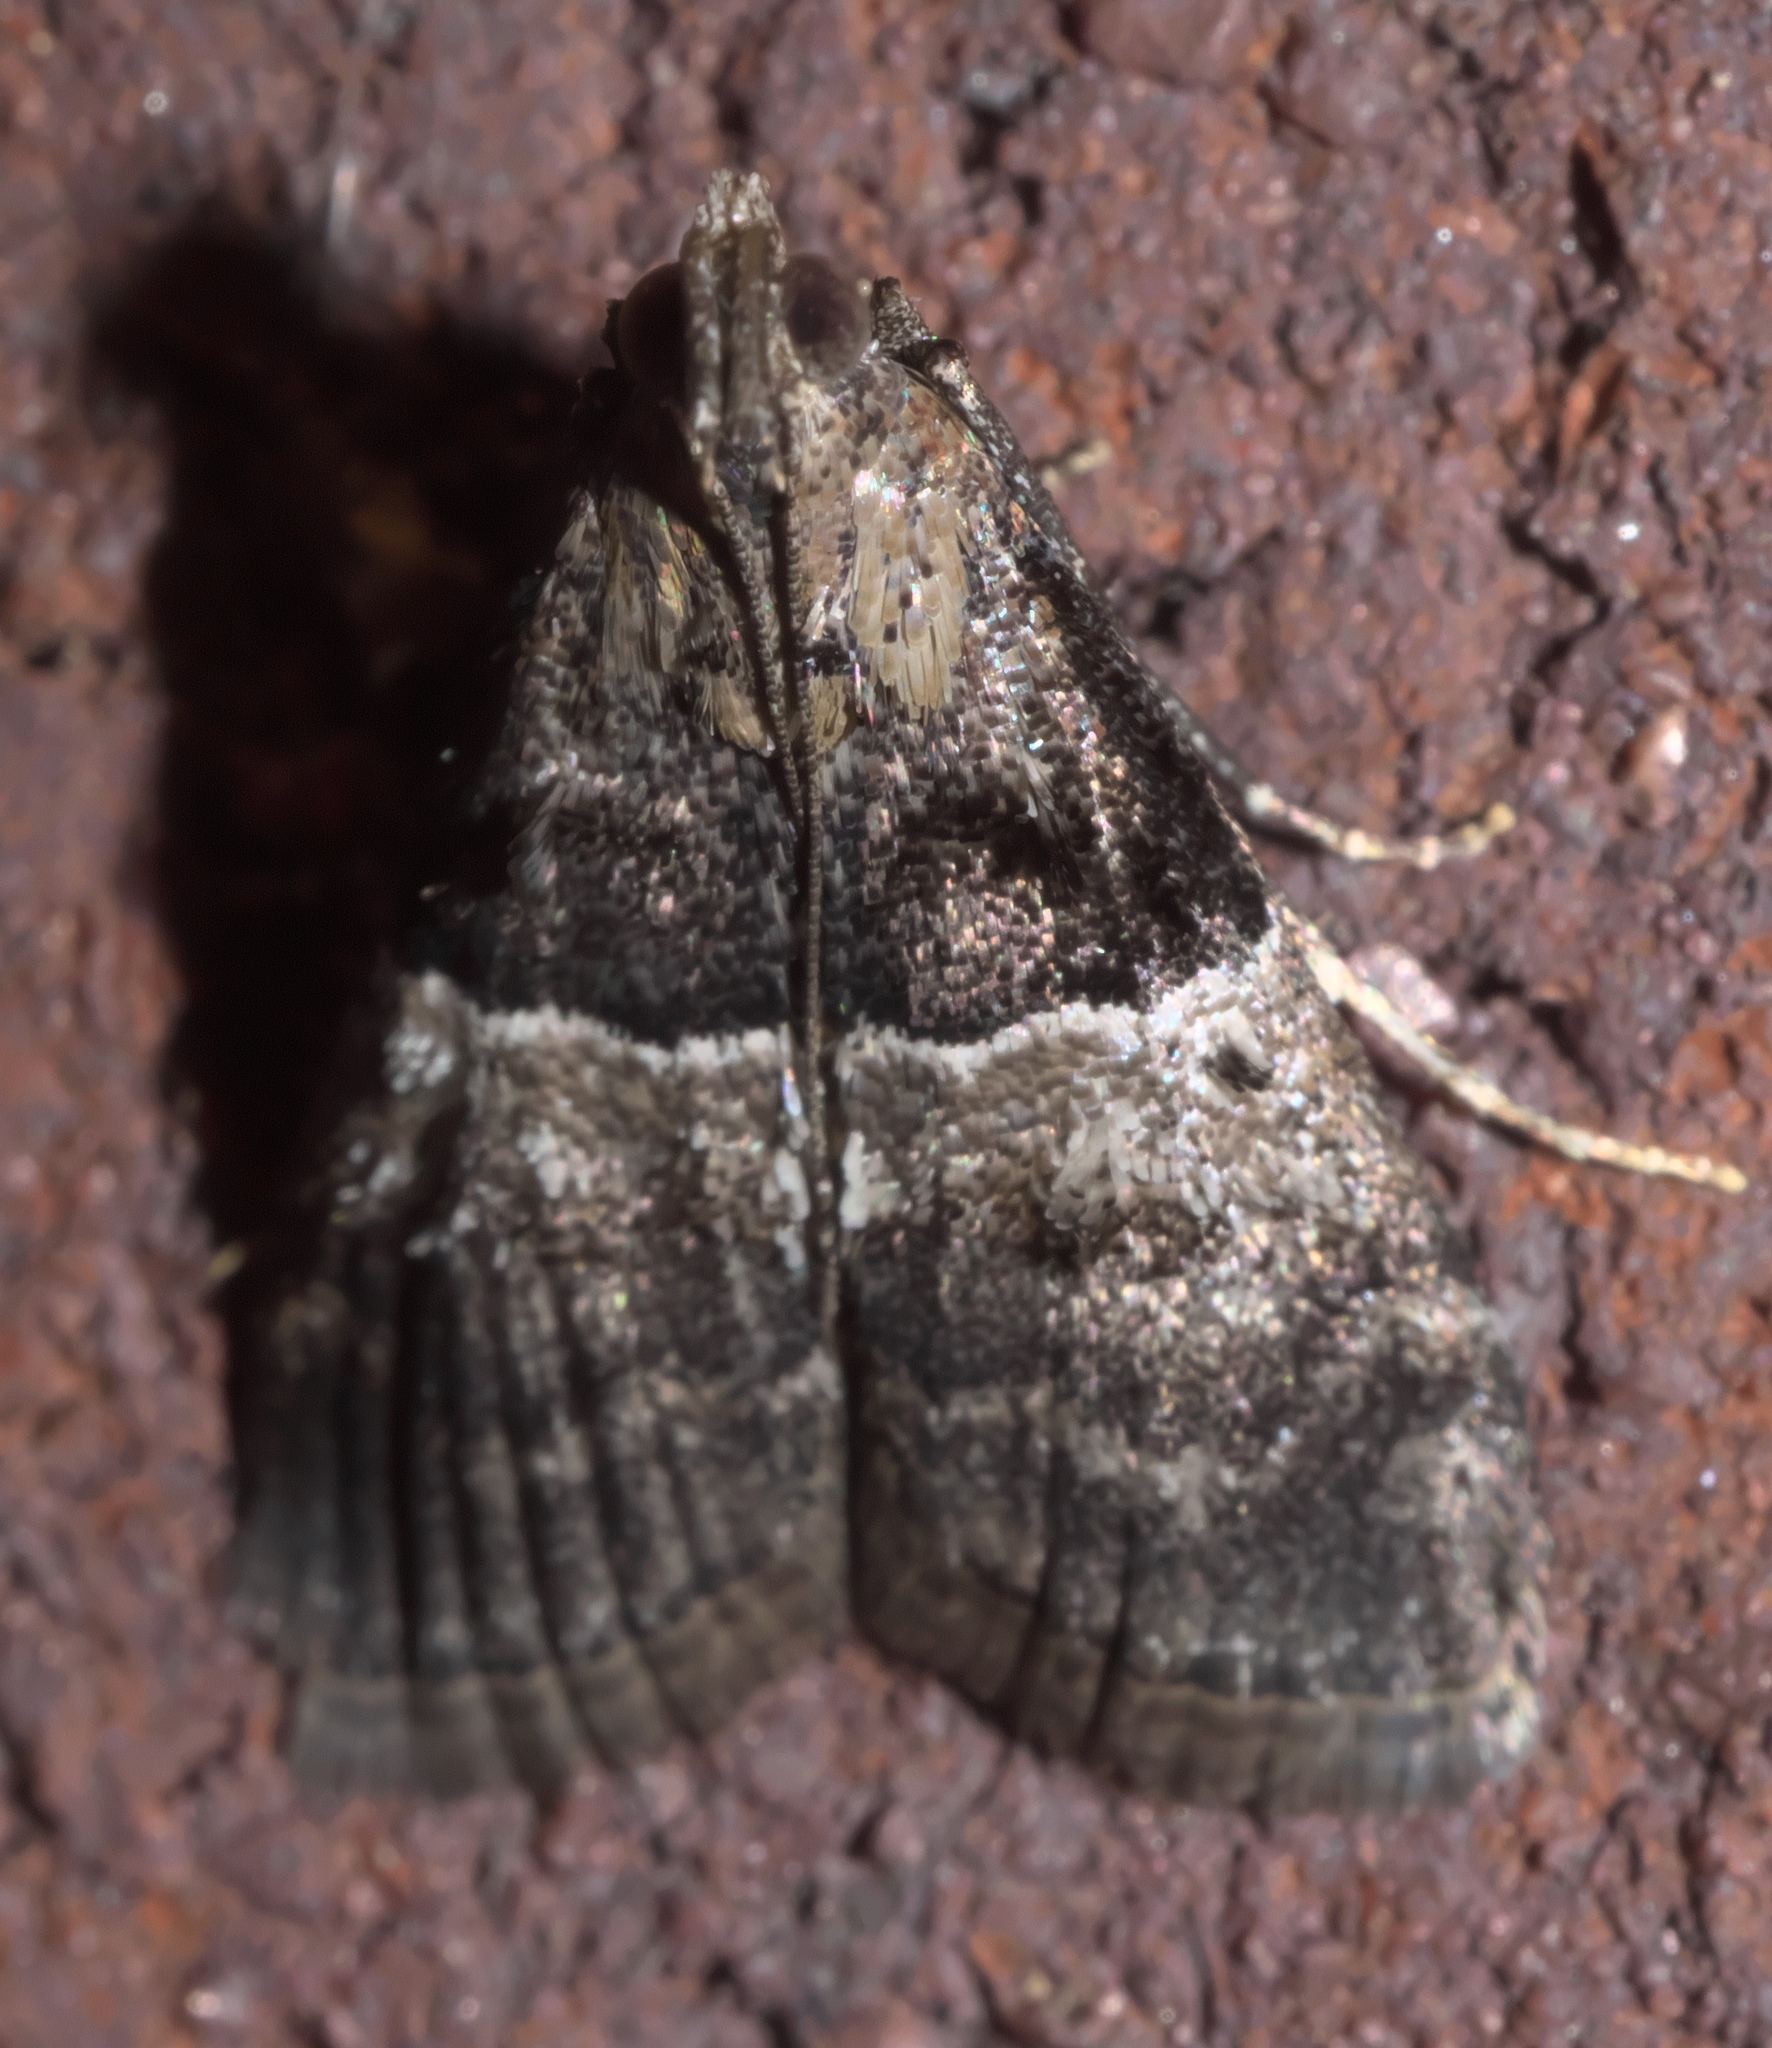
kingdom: Animalia
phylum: Arthropoda
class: Insecta
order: Lepidoptera
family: Pyralidae
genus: Pococera
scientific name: Pococera asperatella
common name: Maple webworm moth
